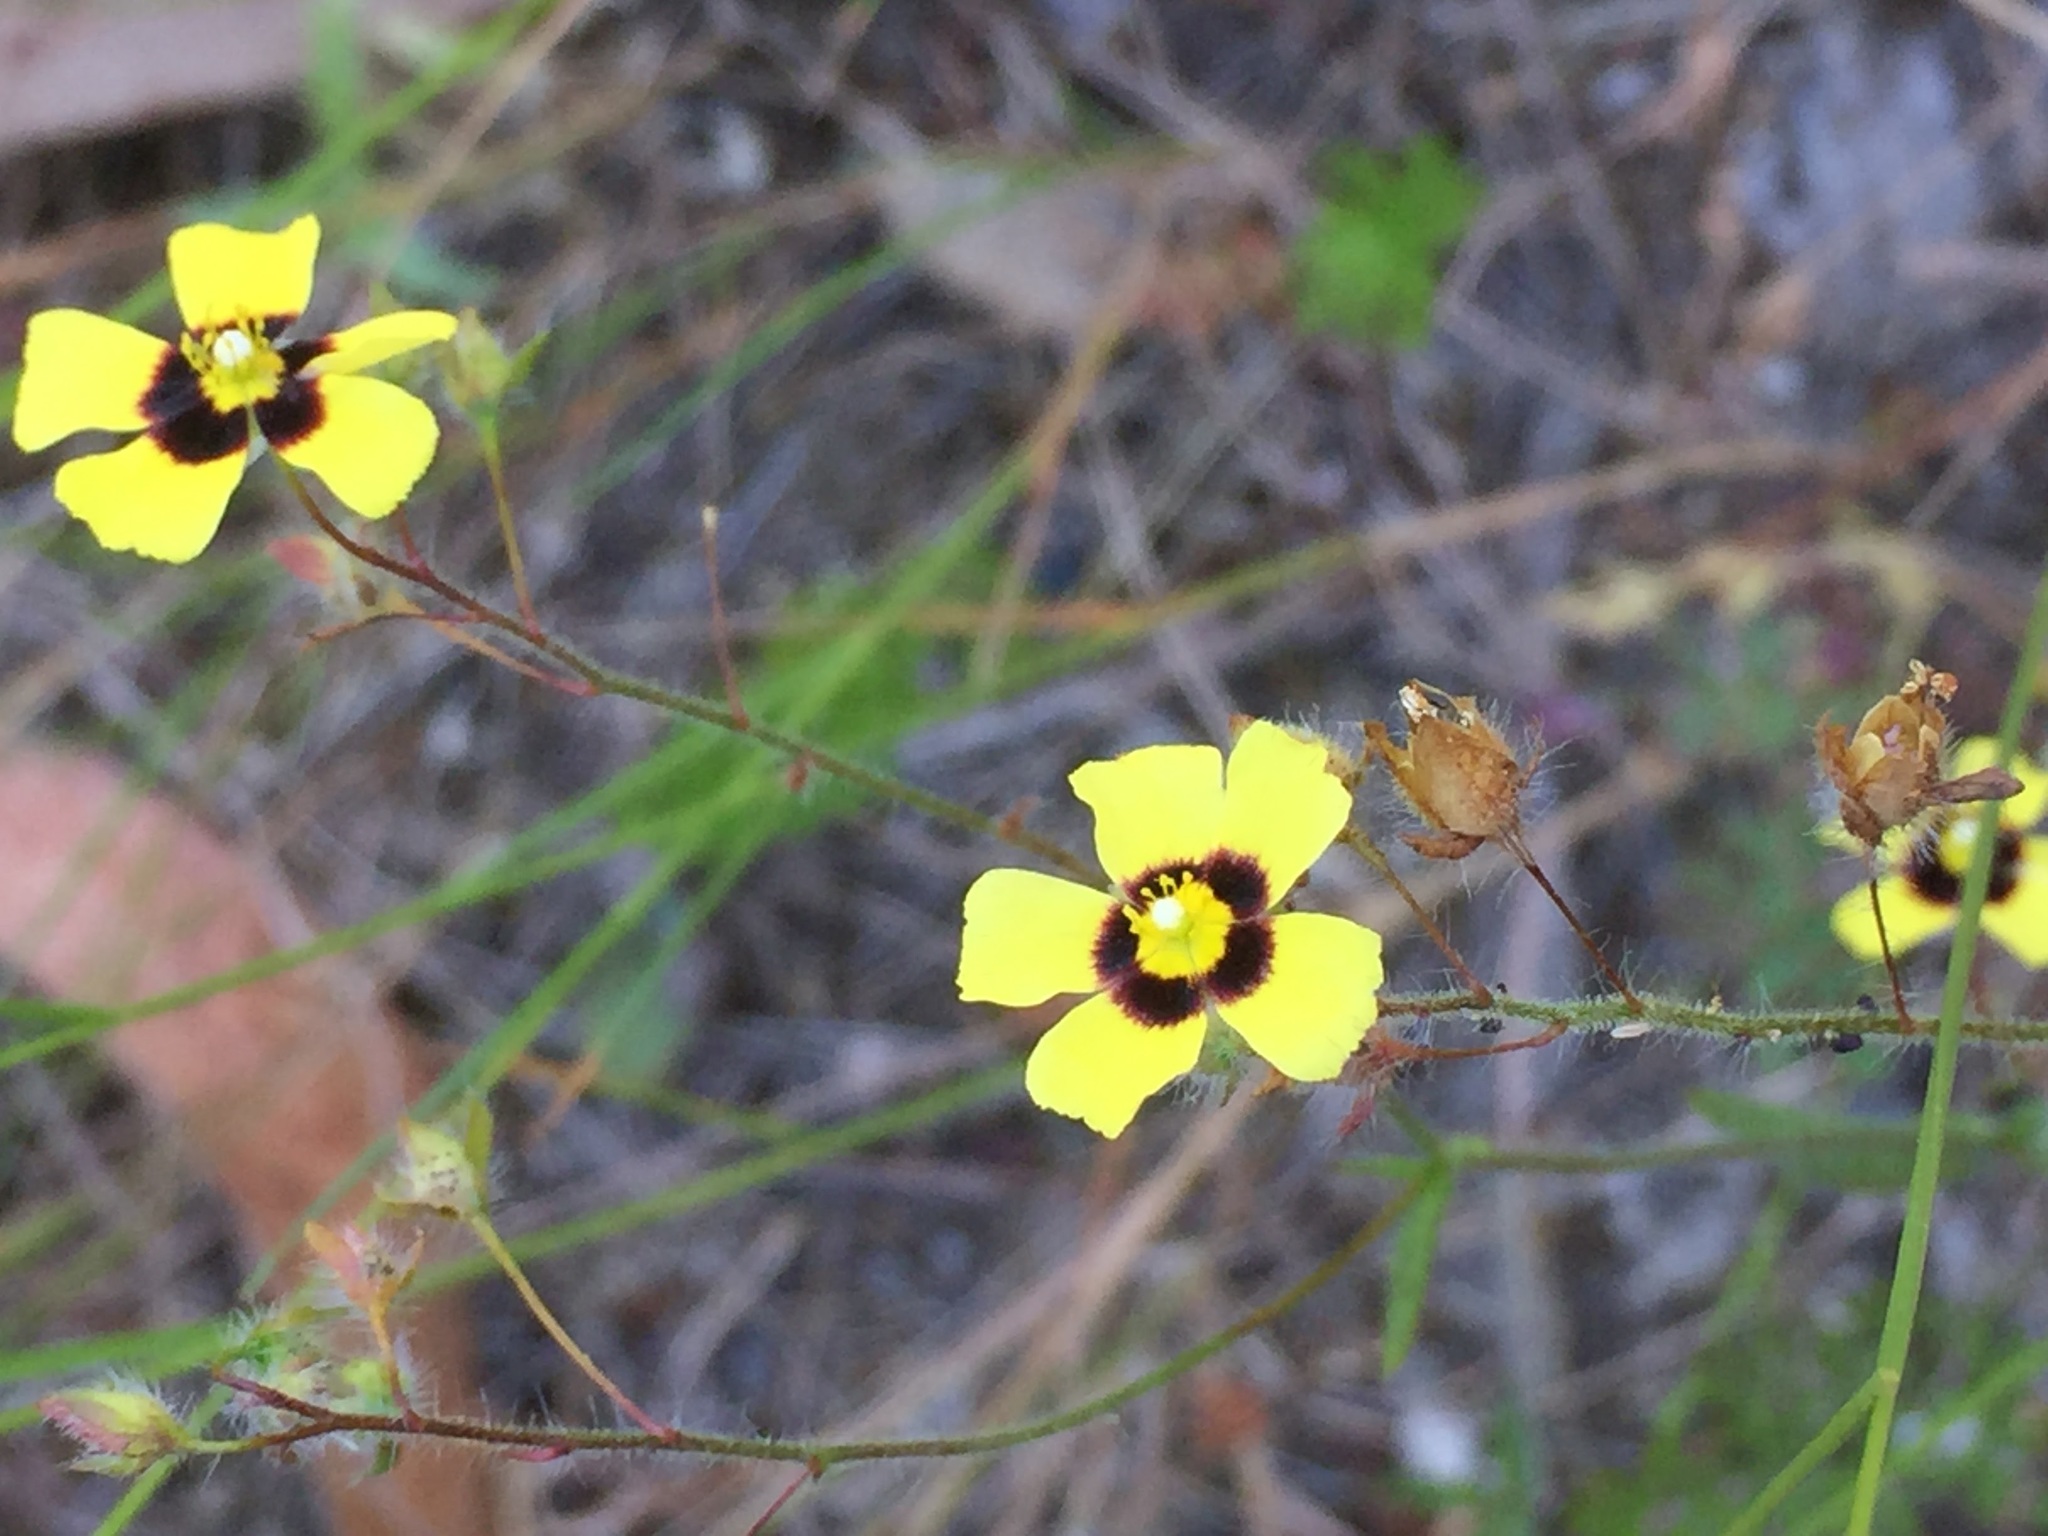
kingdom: Plantae
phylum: Tracheophyta
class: Magnoliopsida
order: Malvales
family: Cistaceae
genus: Tuberaria
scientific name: Tuberaria guttata
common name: Spotted rock-rose
